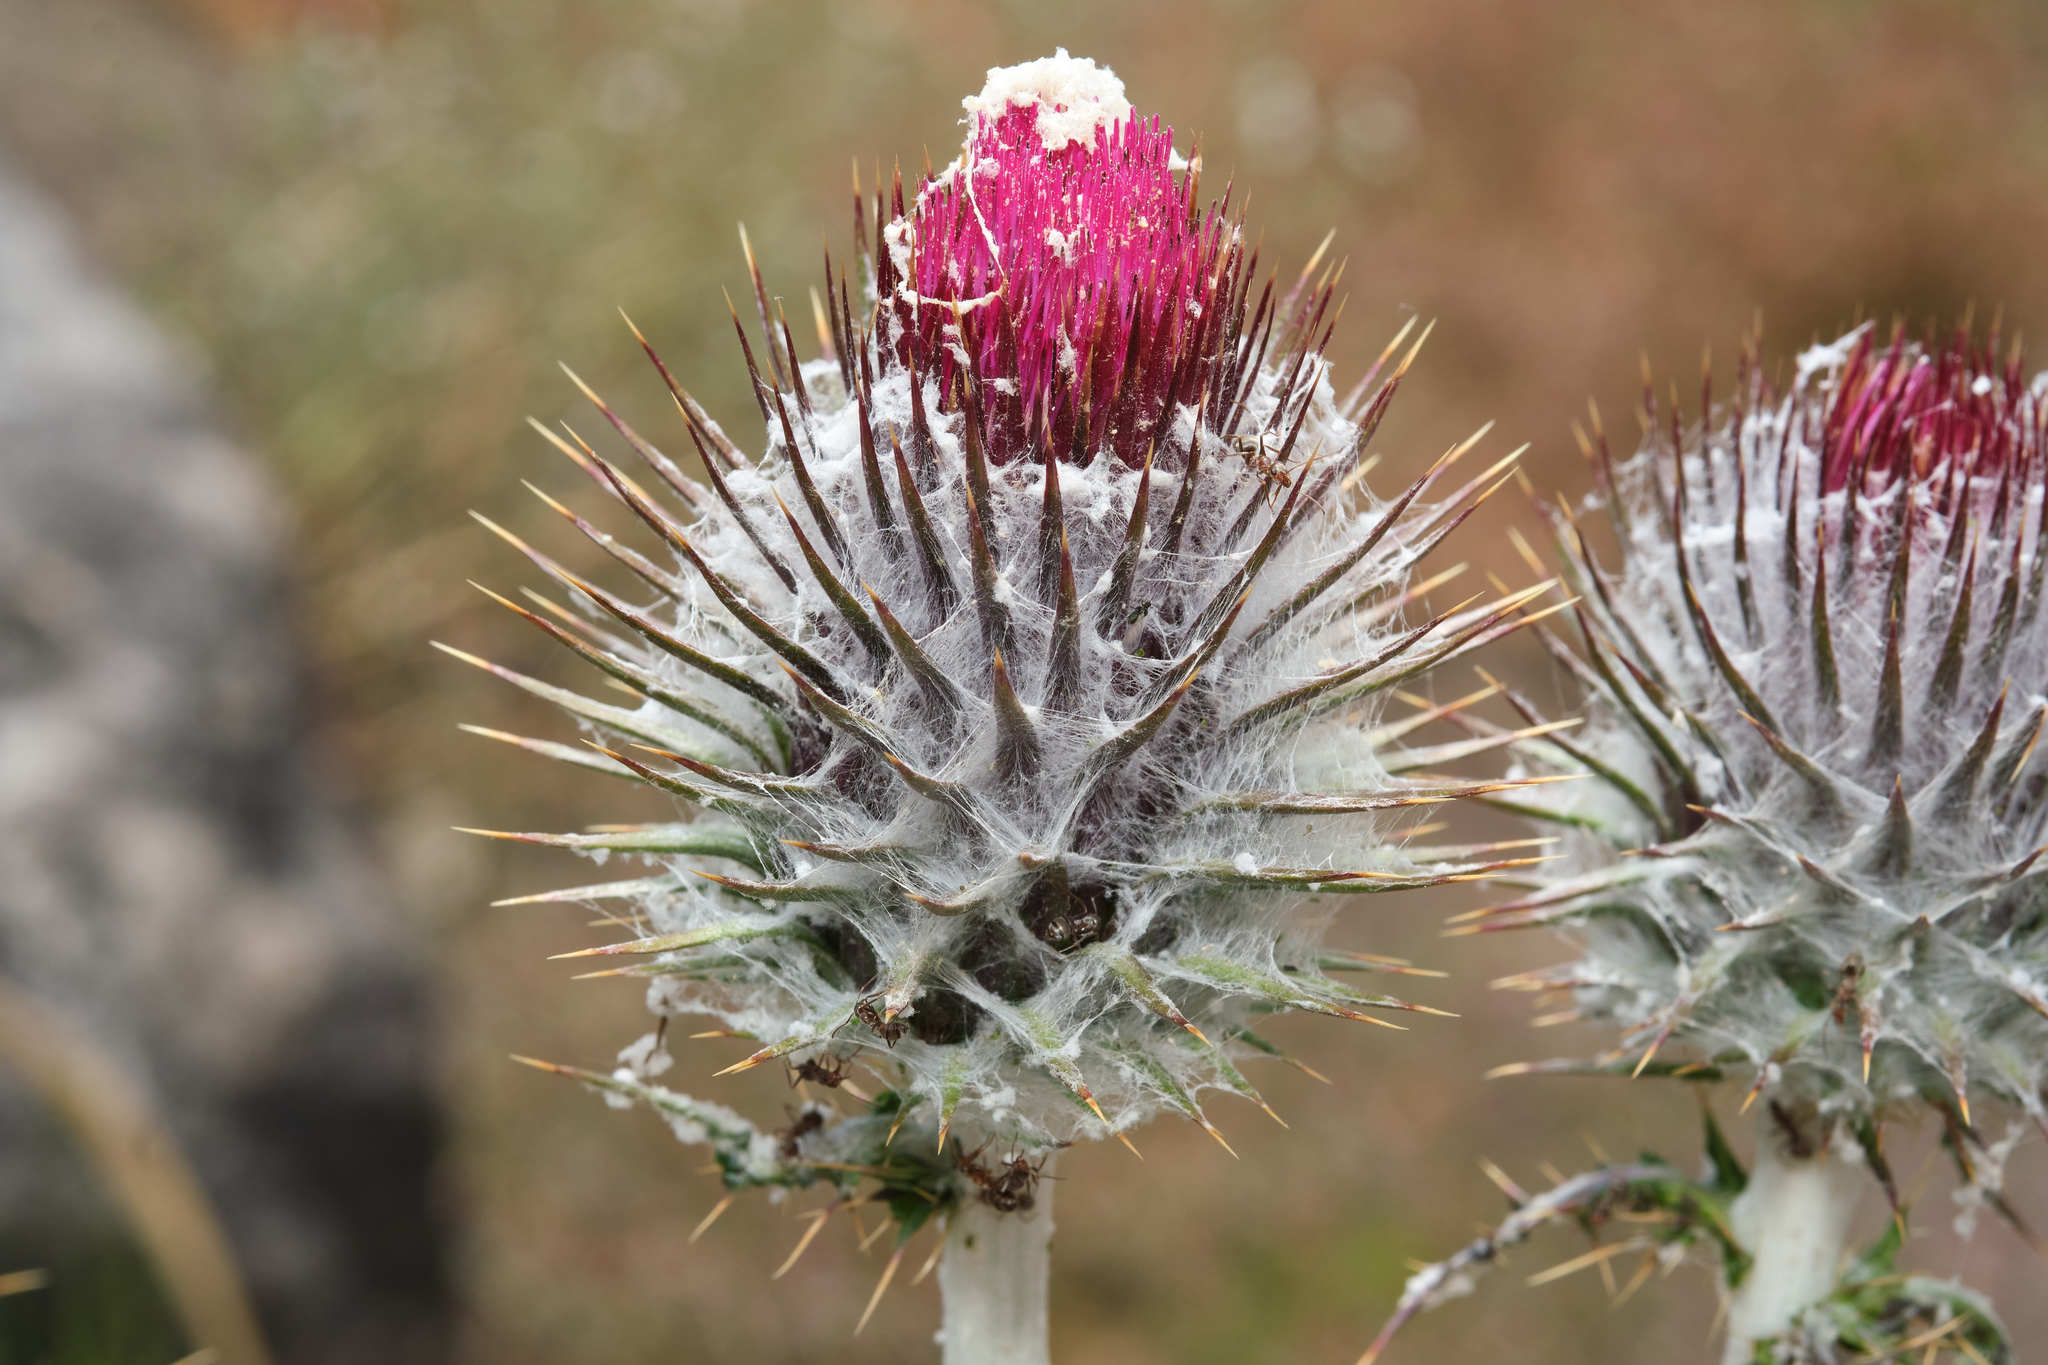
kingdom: Plantae
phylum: Tracheophyta
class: Magnoliopsida
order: Asterales
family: Asteraceae
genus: Cirsium
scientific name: Cirsium occidentale
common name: Western thistle
